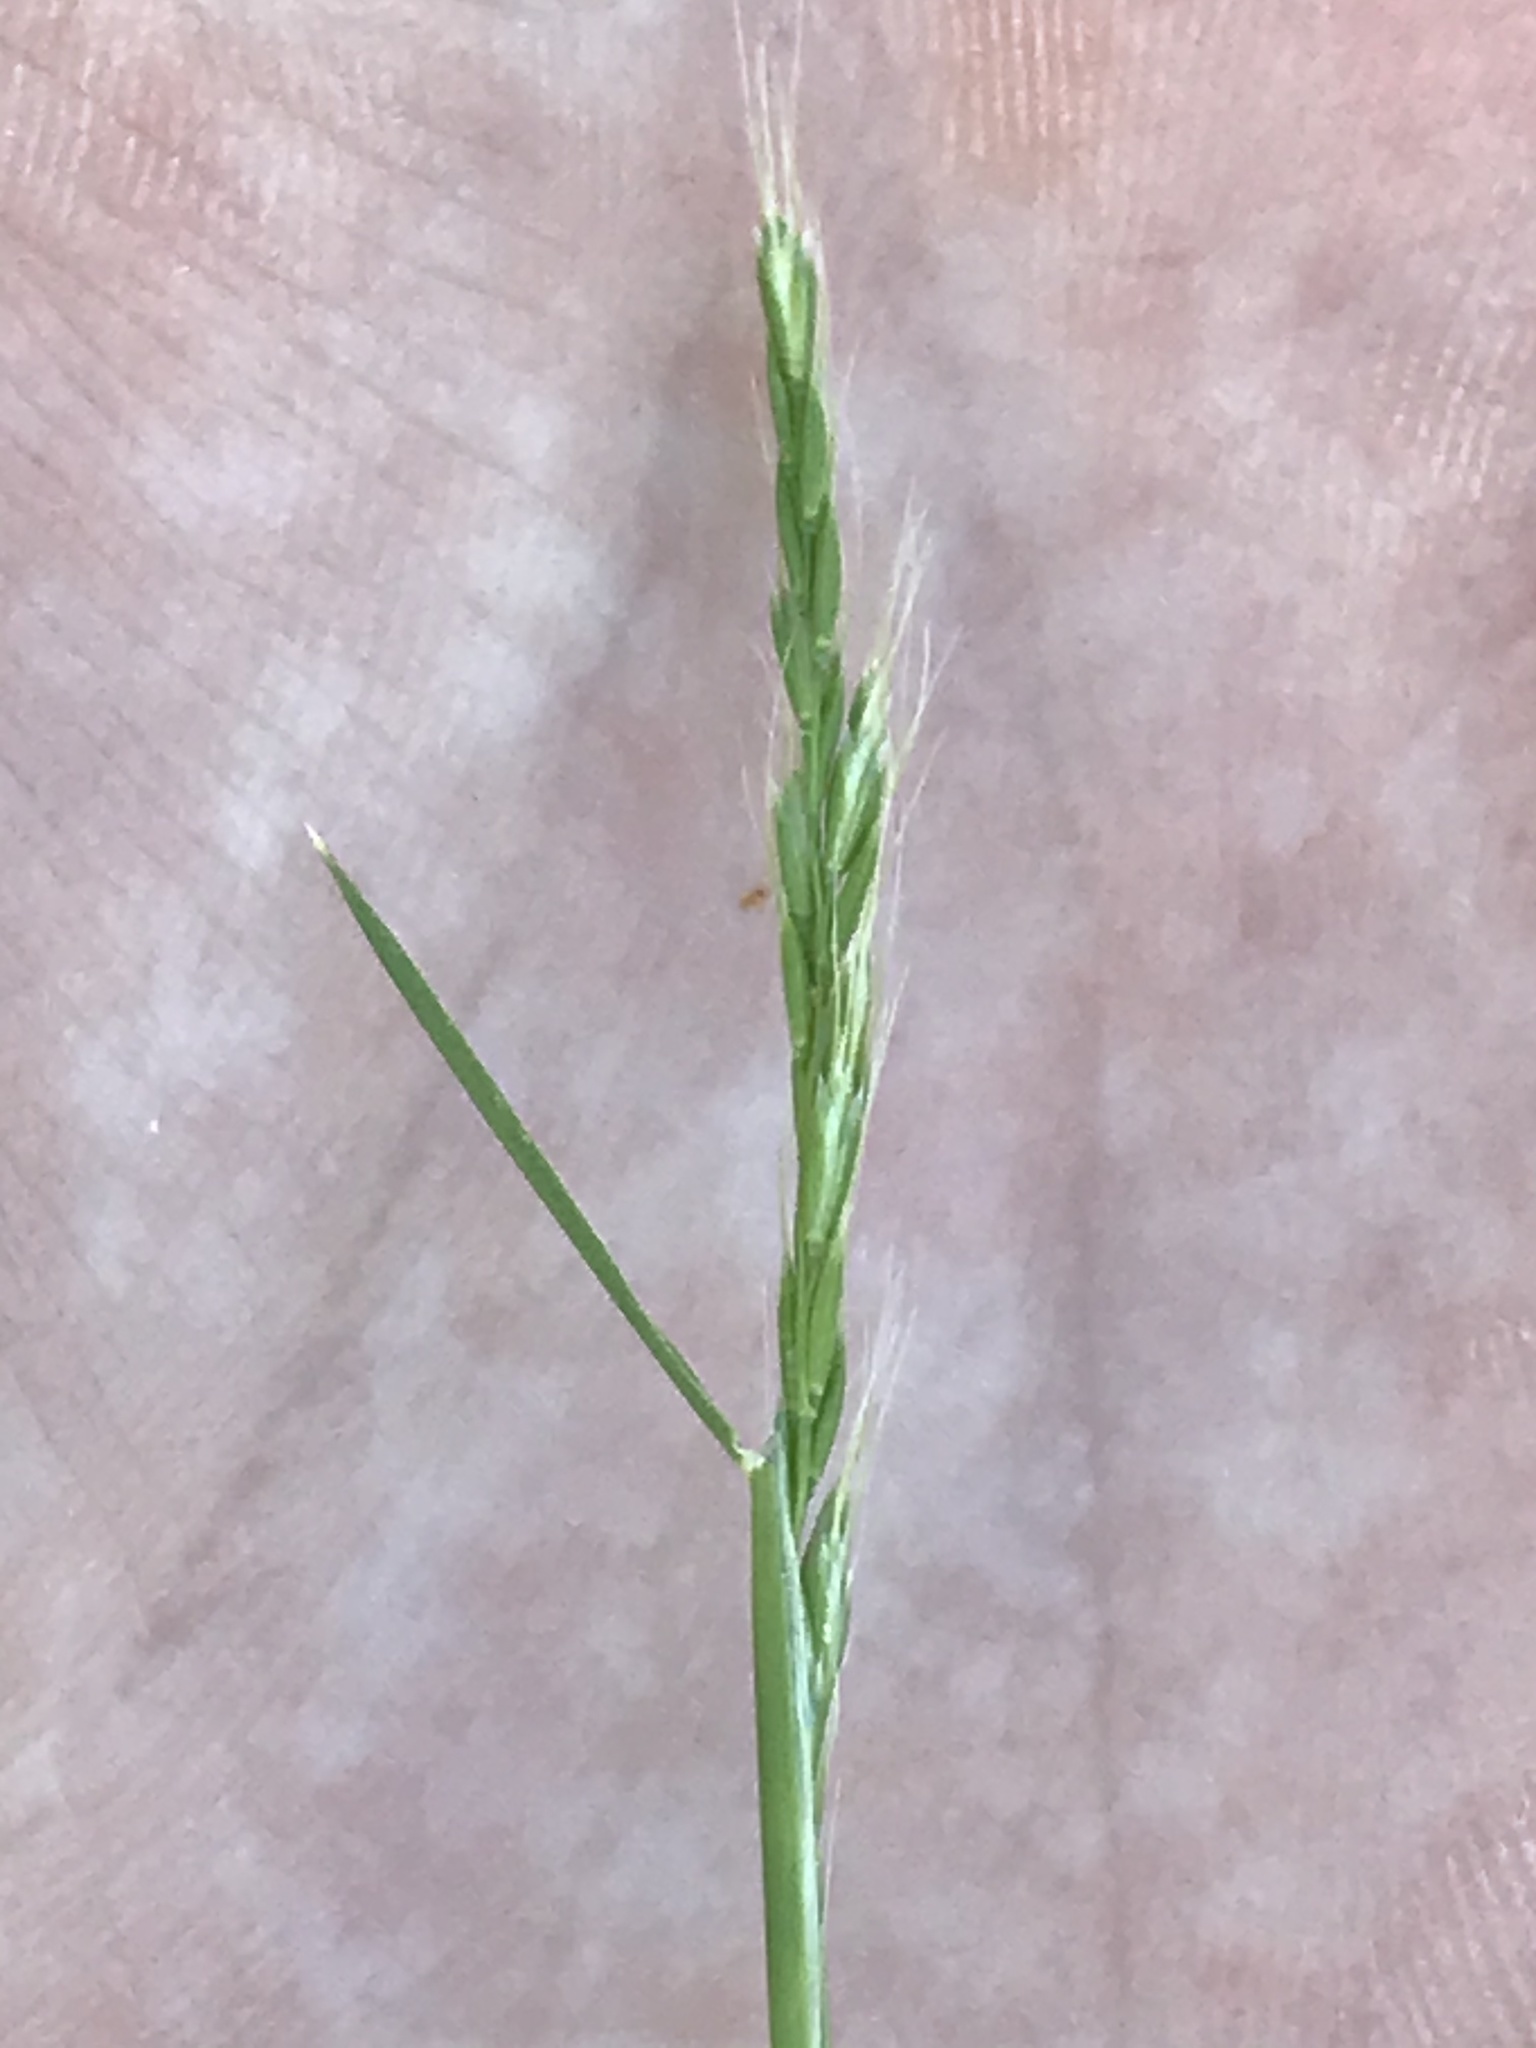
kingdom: Plantae
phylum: Tracheophyta
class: Liliopsida
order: Poales
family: Poaceae
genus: Trisetum
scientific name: Trisetum interruptum
